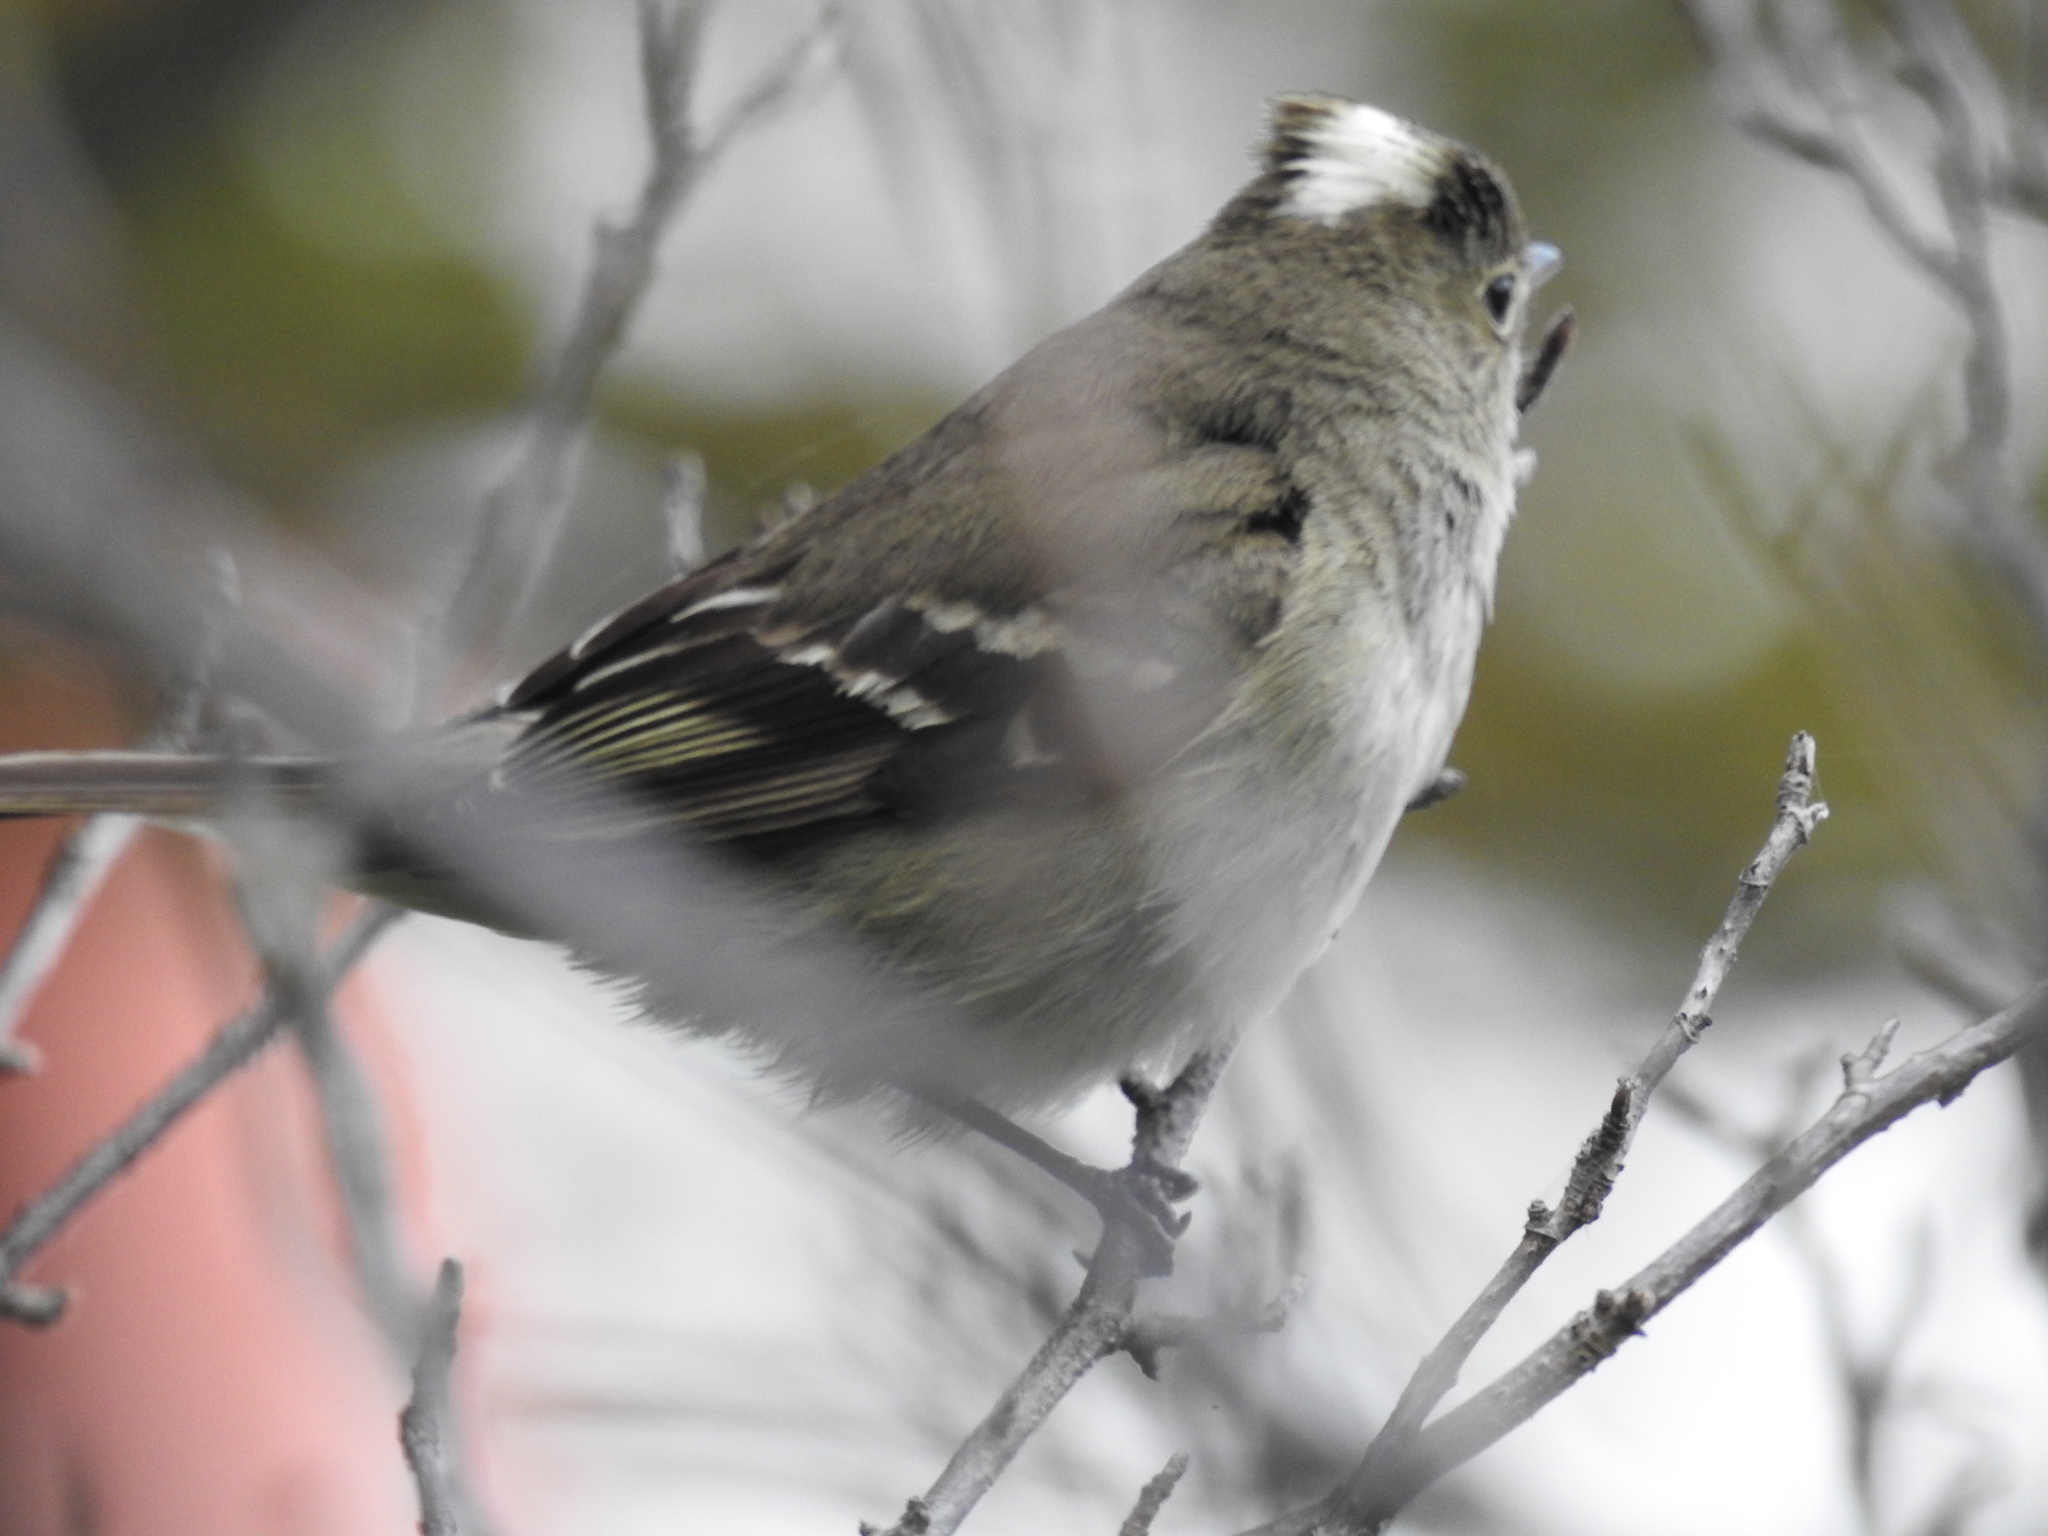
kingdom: Animalia
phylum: Chordata
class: Aves
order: Passeriformes
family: Tyrannidae
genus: Elaenia
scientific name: Elaenia albiceps
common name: White-crested elaenia
